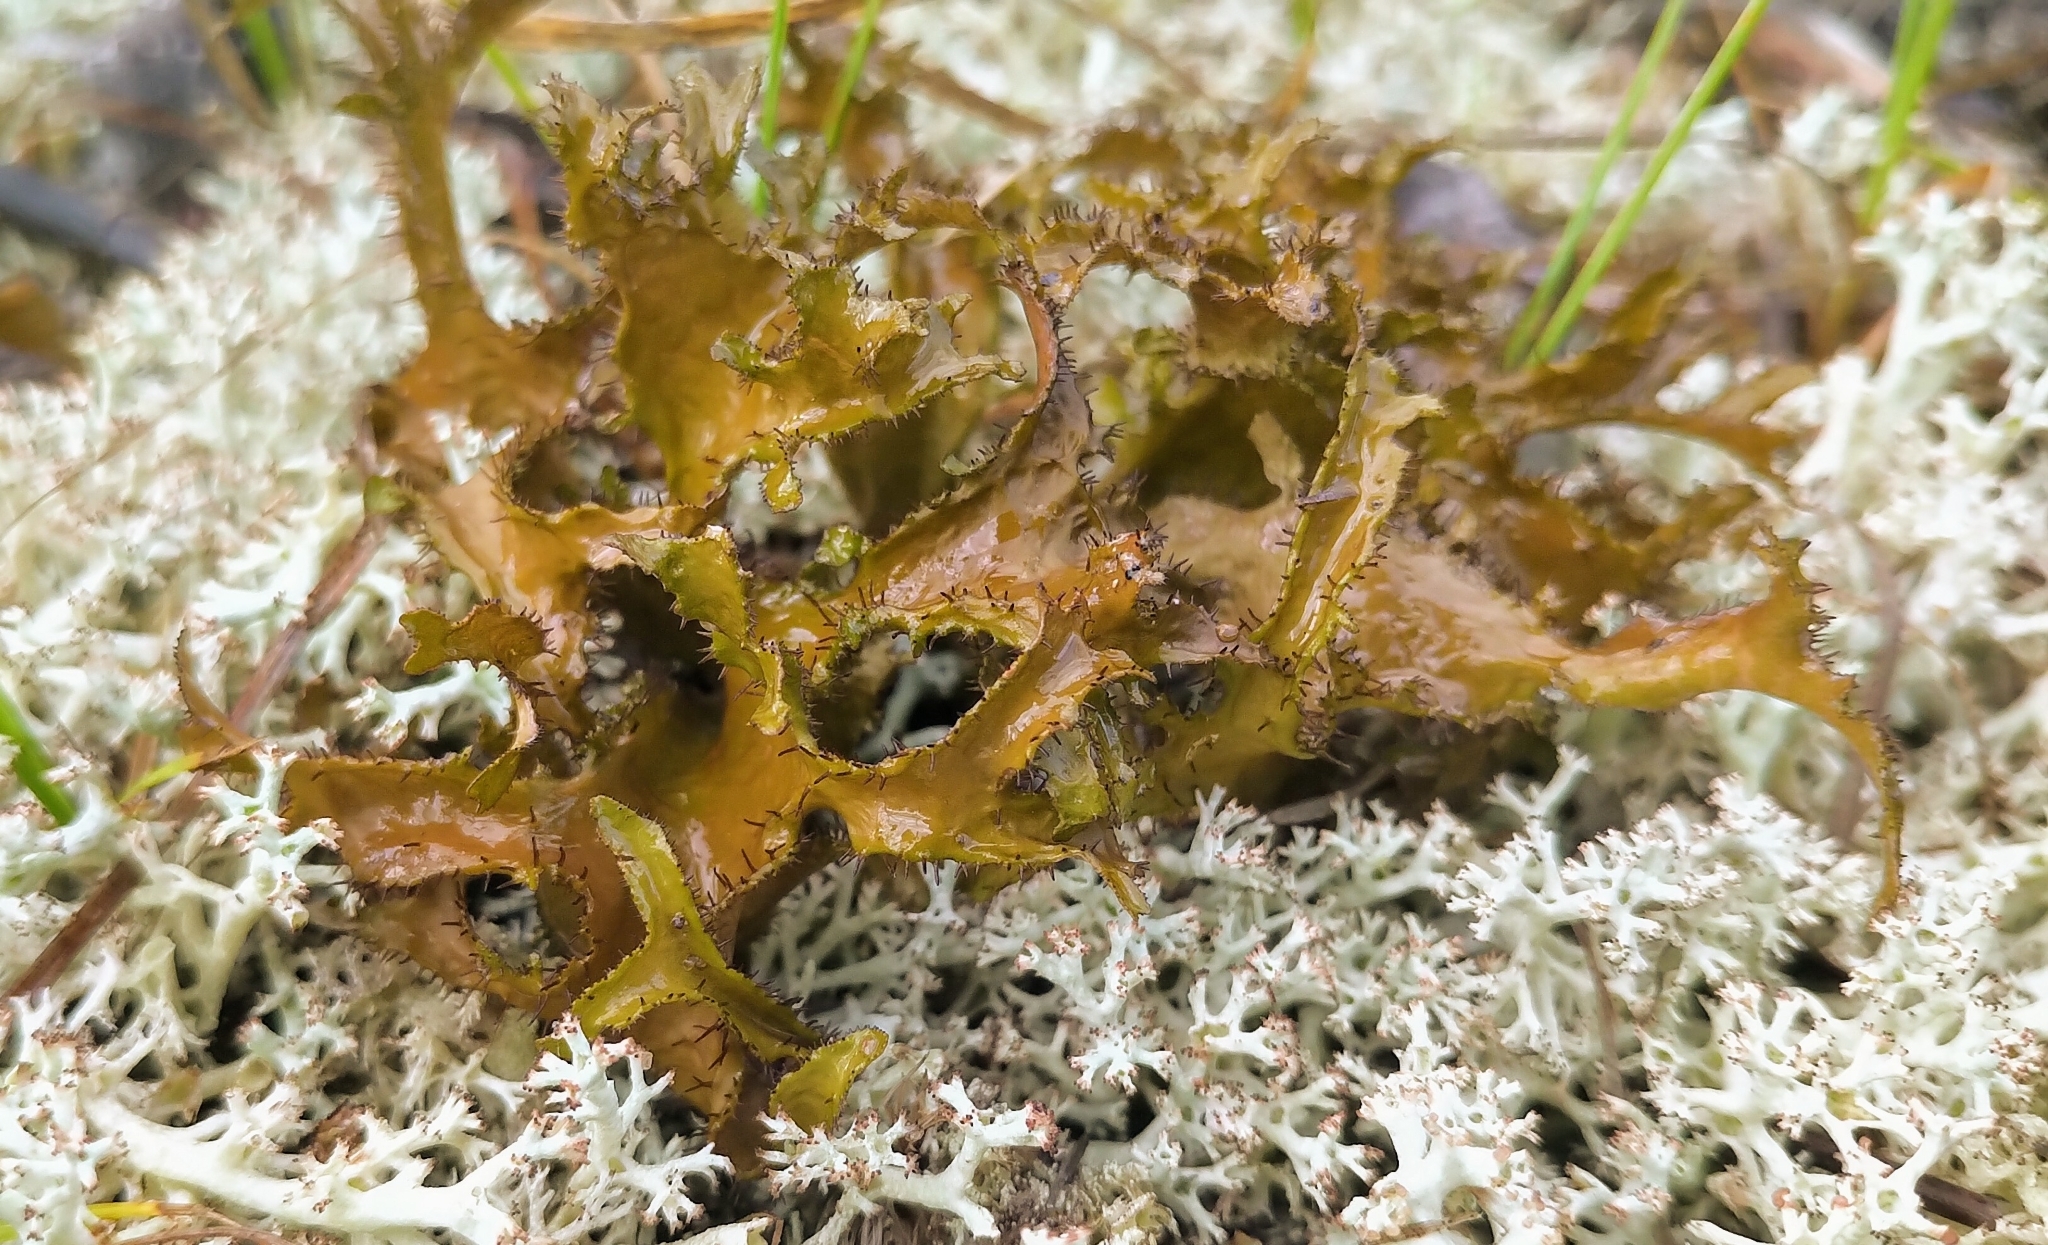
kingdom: Fungi
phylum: Ascomycota
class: Lecanoromycetes
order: Lecanorales
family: Parmeliaceae
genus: Cetraria
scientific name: Cetraria arenaria
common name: Sand-loving iceland lichen
